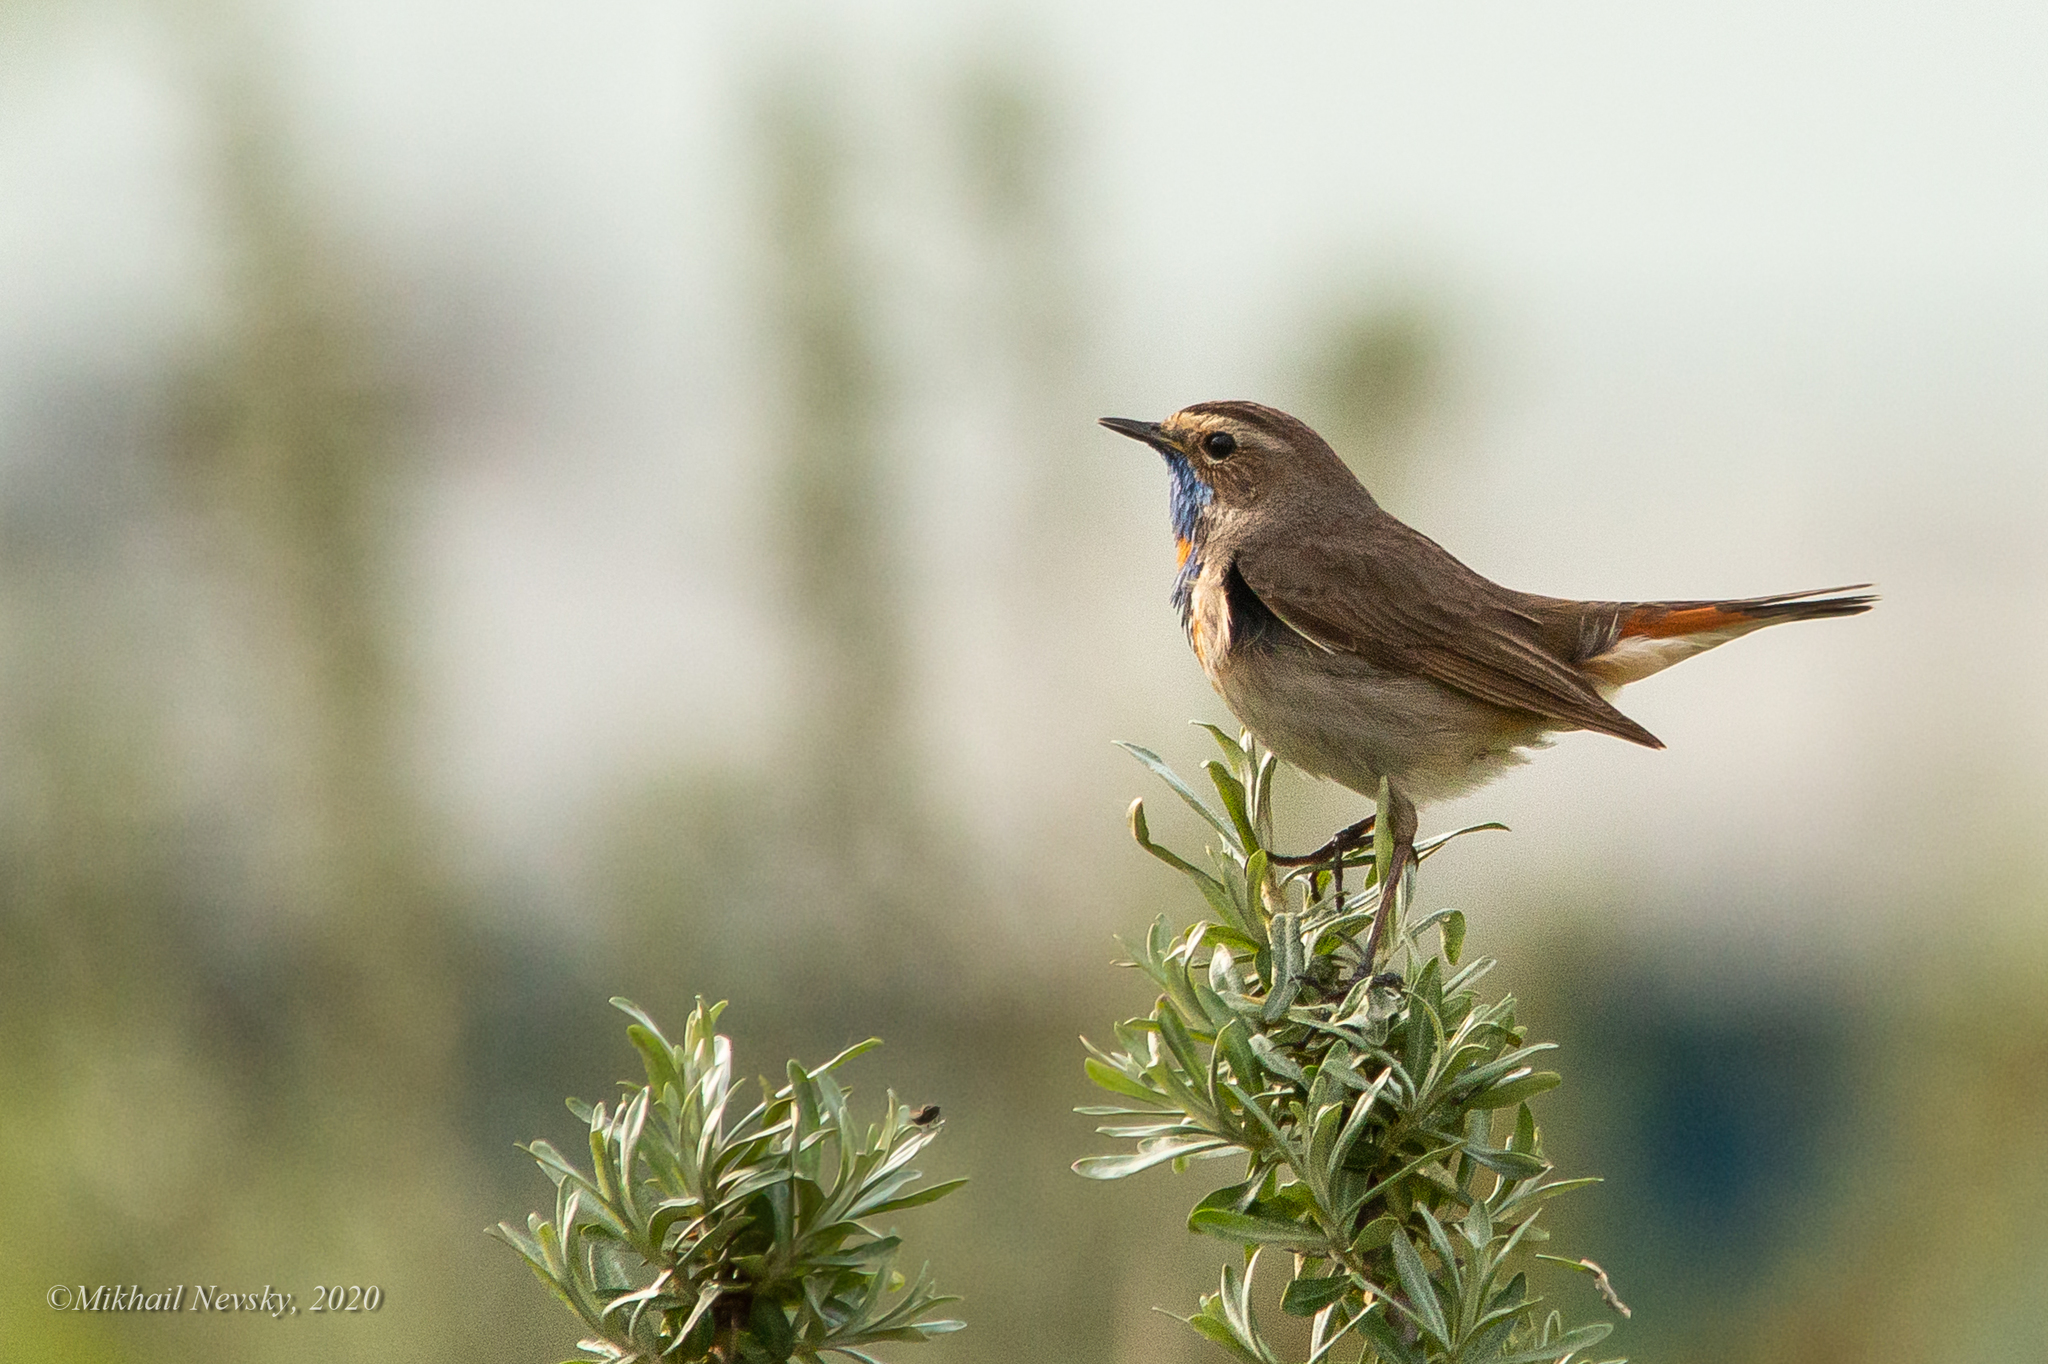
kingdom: Animalia
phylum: Chordata
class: Aves
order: Passeriformes
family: Muscicapidae
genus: Luscinia
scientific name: Luscinia svecica
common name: Bluethroat
